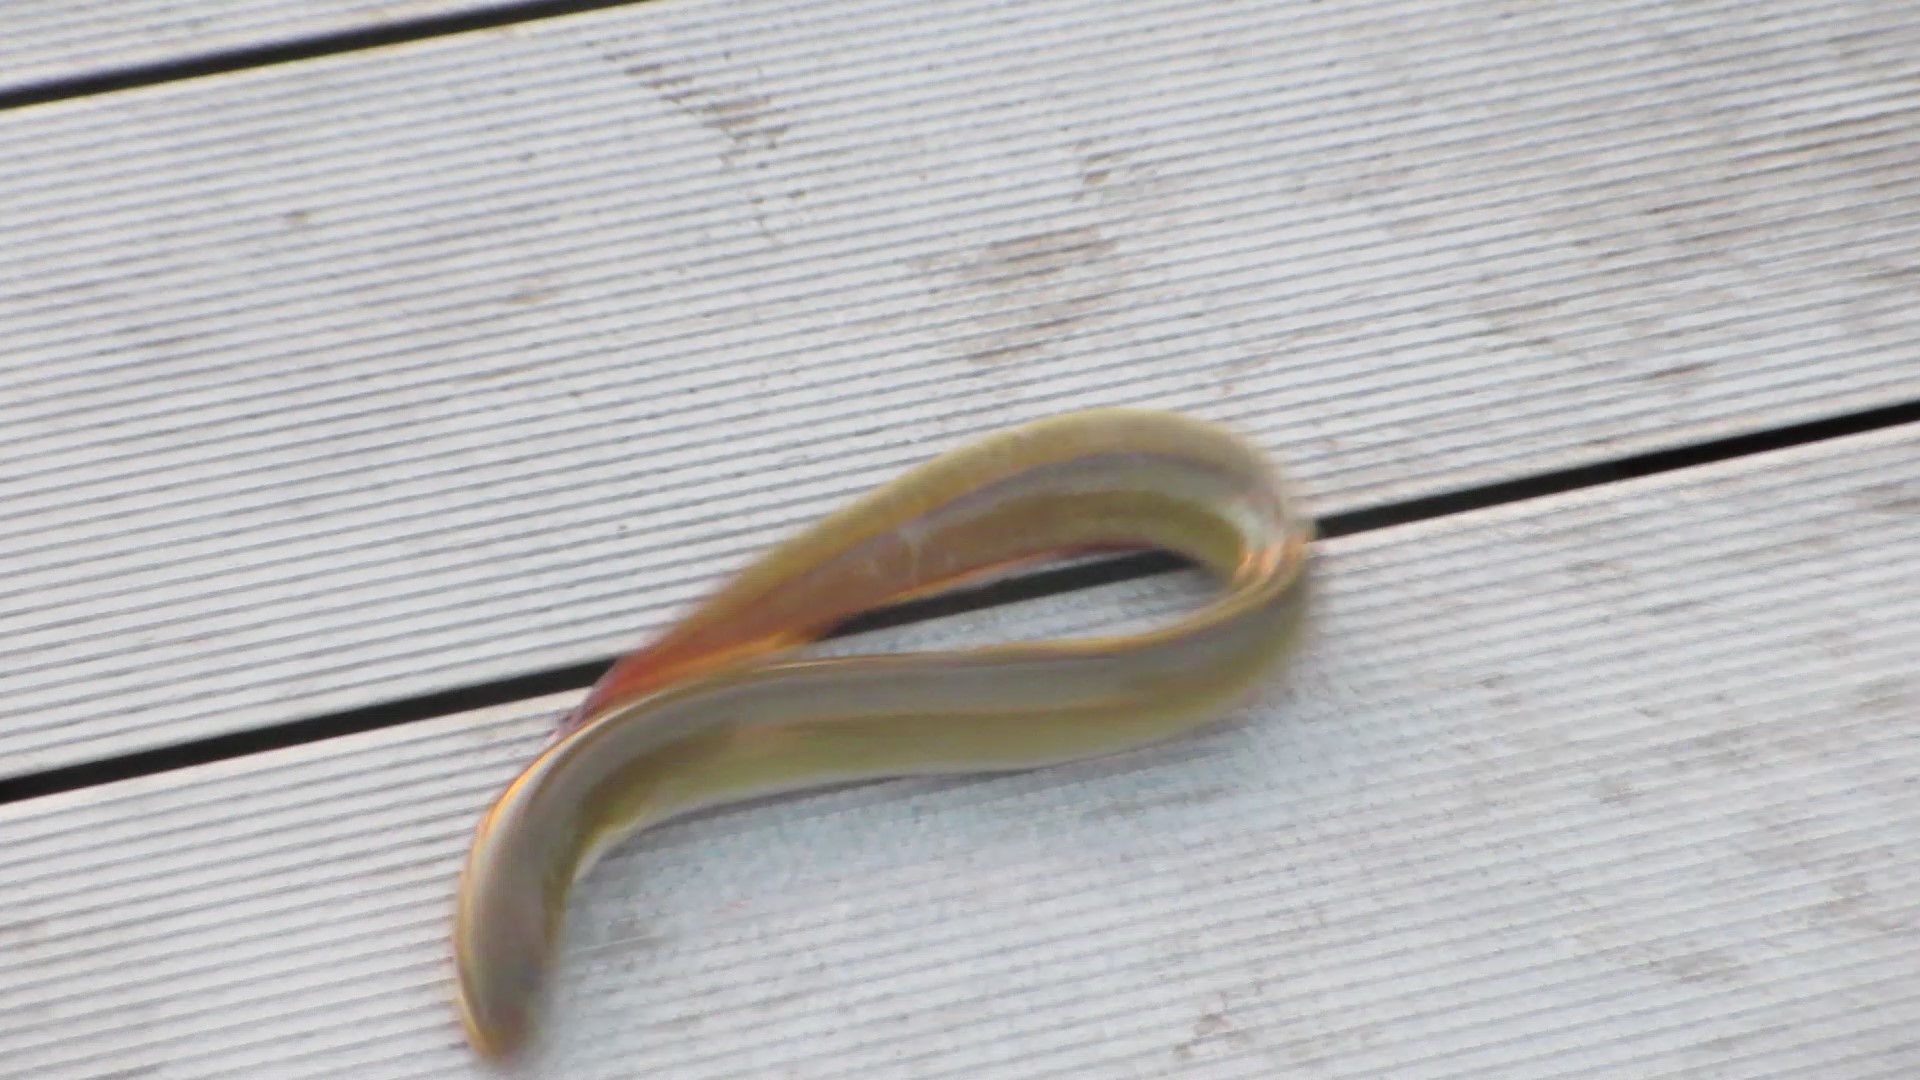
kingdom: Animalia
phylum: Chordata
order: Anguilliformes
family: Anguillidae
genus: Anguilla
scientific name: Anguilla rostrata
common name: American eel
